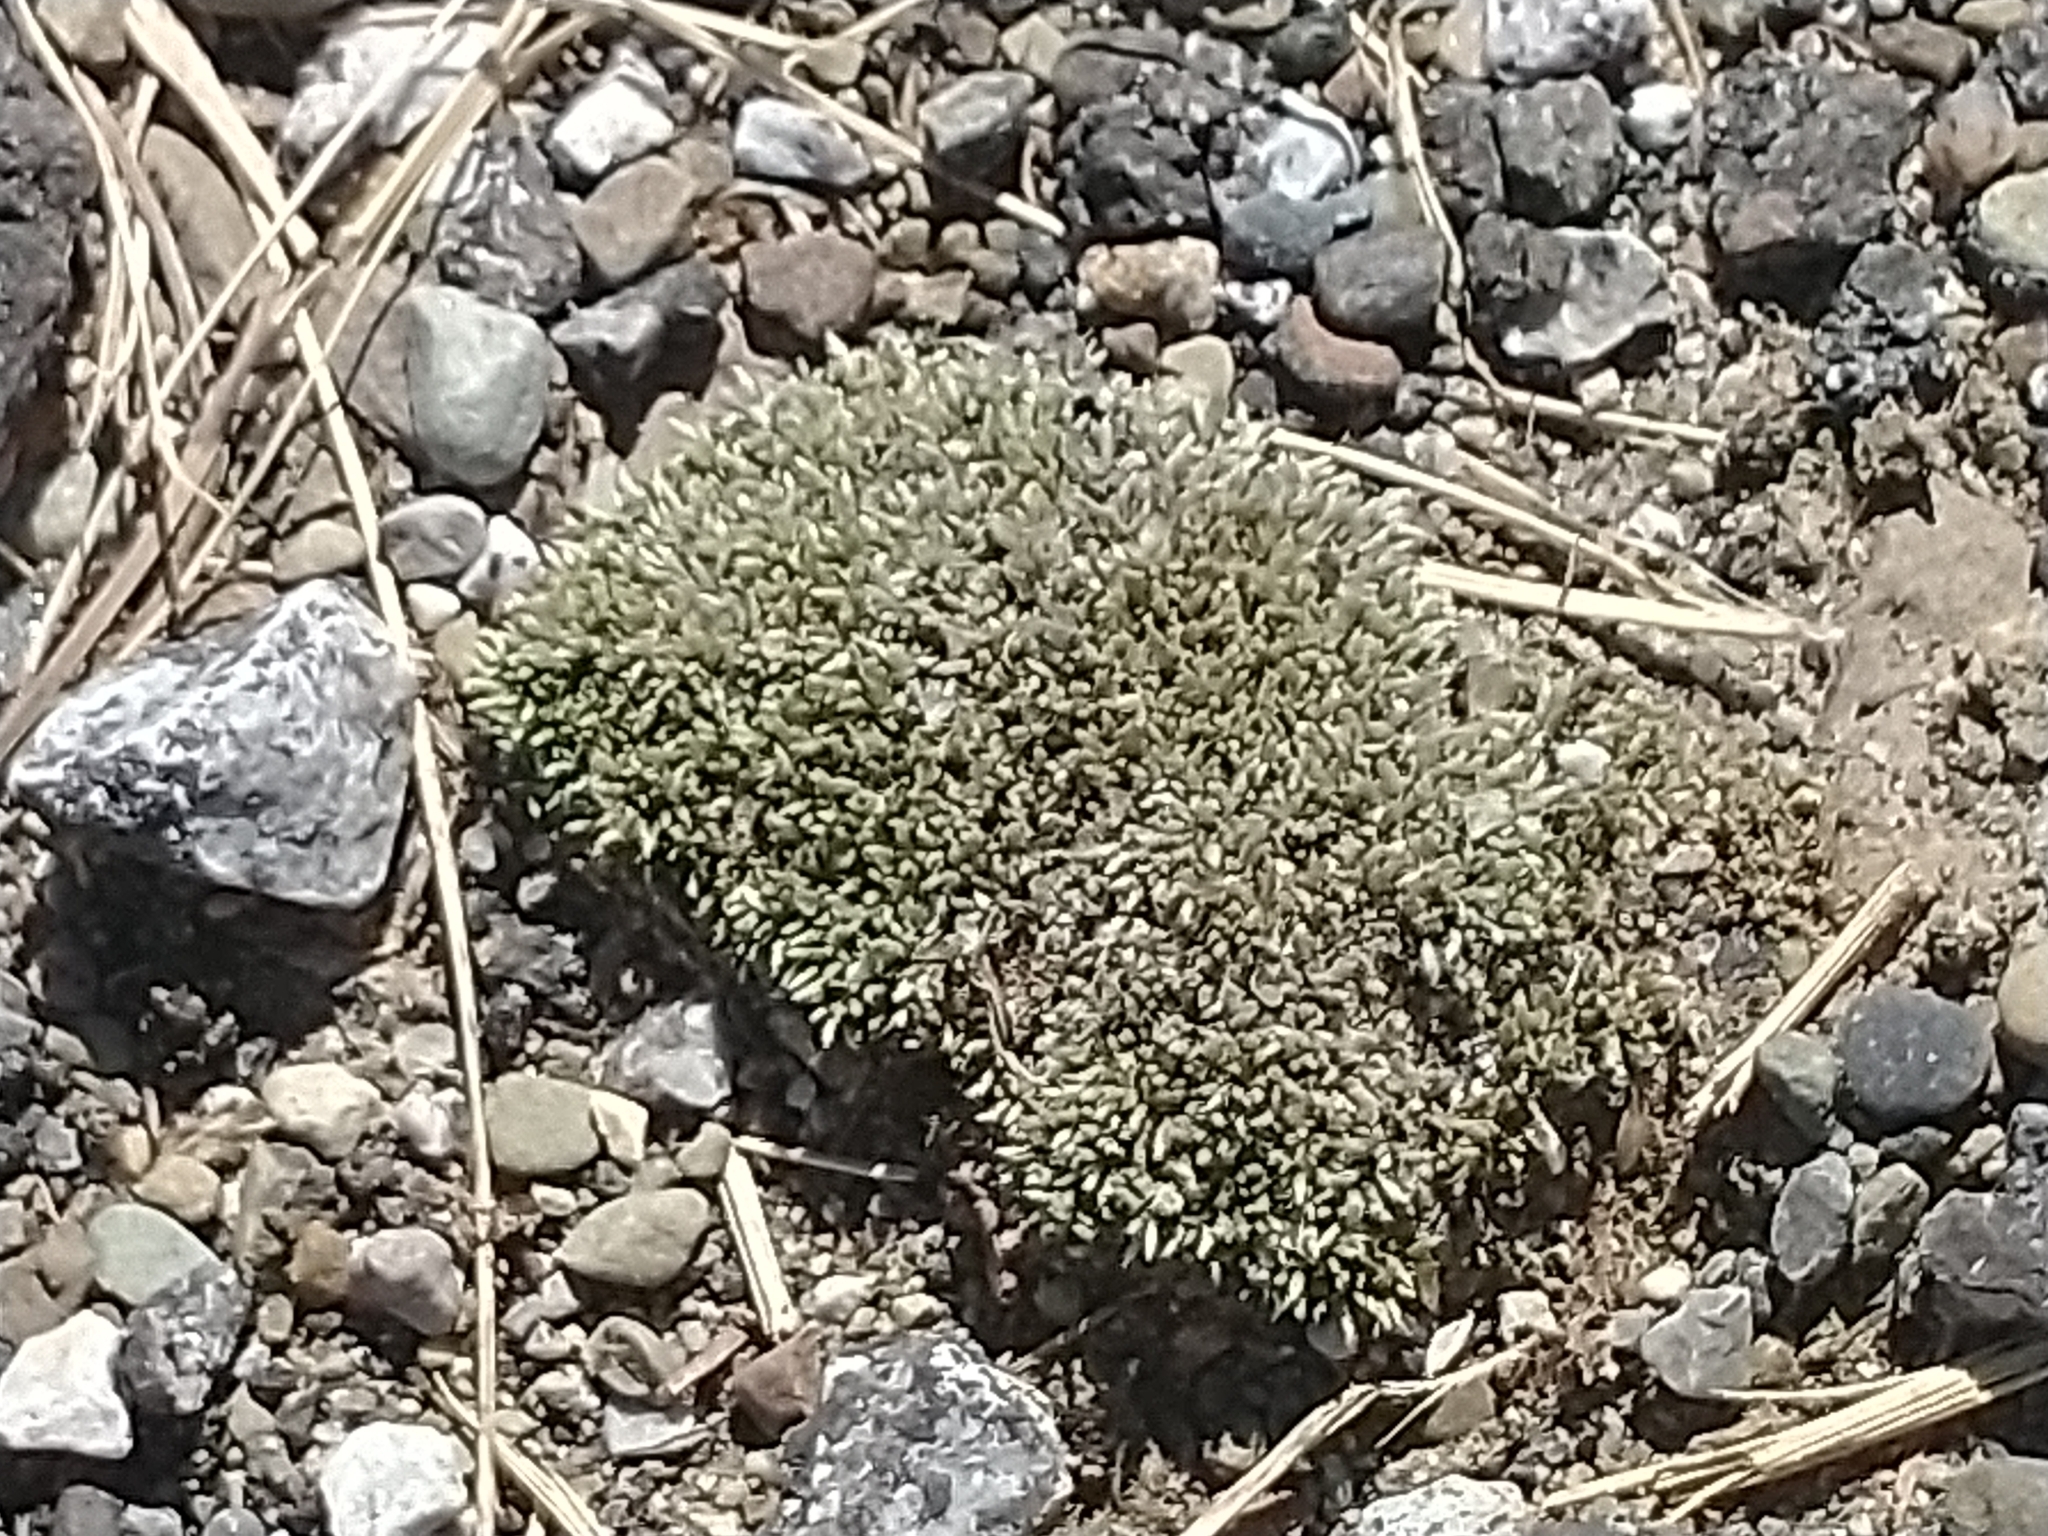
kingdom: Plantae
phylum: Bryophyta
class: Bryopsida
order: Bryales
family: Bryaceae
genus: Bryum
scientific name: Bryum argenteum
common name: Silver-moss
